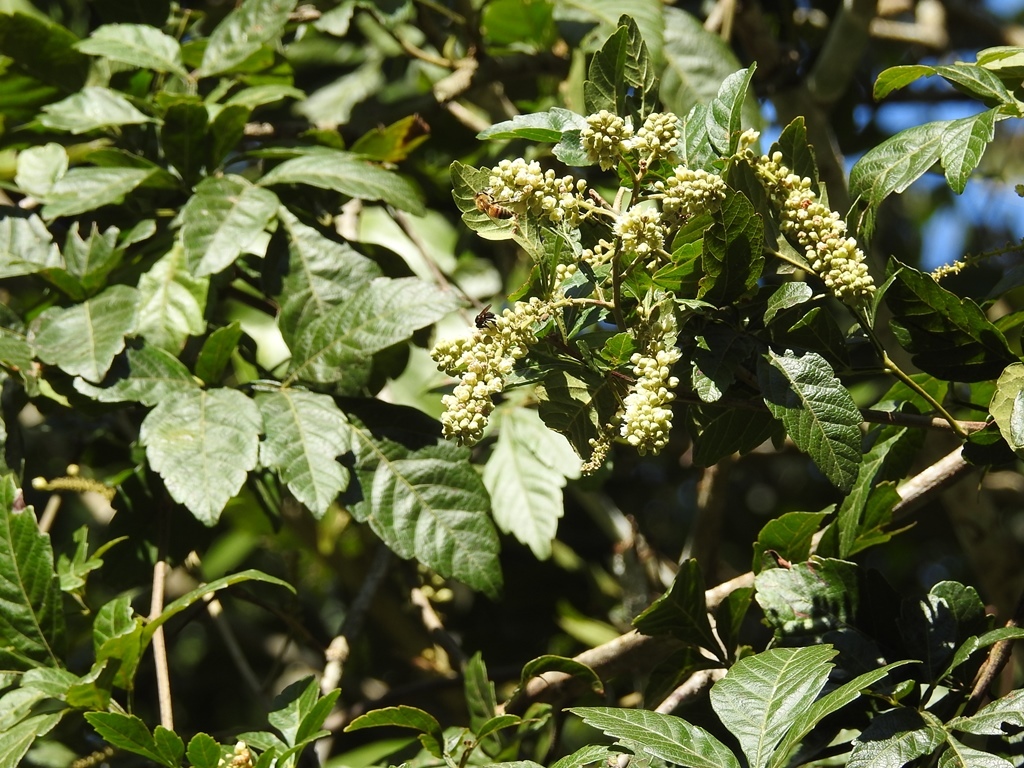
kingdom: Plantae
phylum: Tracheophyta
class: Magnoliopsida
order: Sapindales
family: Sapindaceae
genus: Paullinia
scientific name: Paullinia fuscescens
